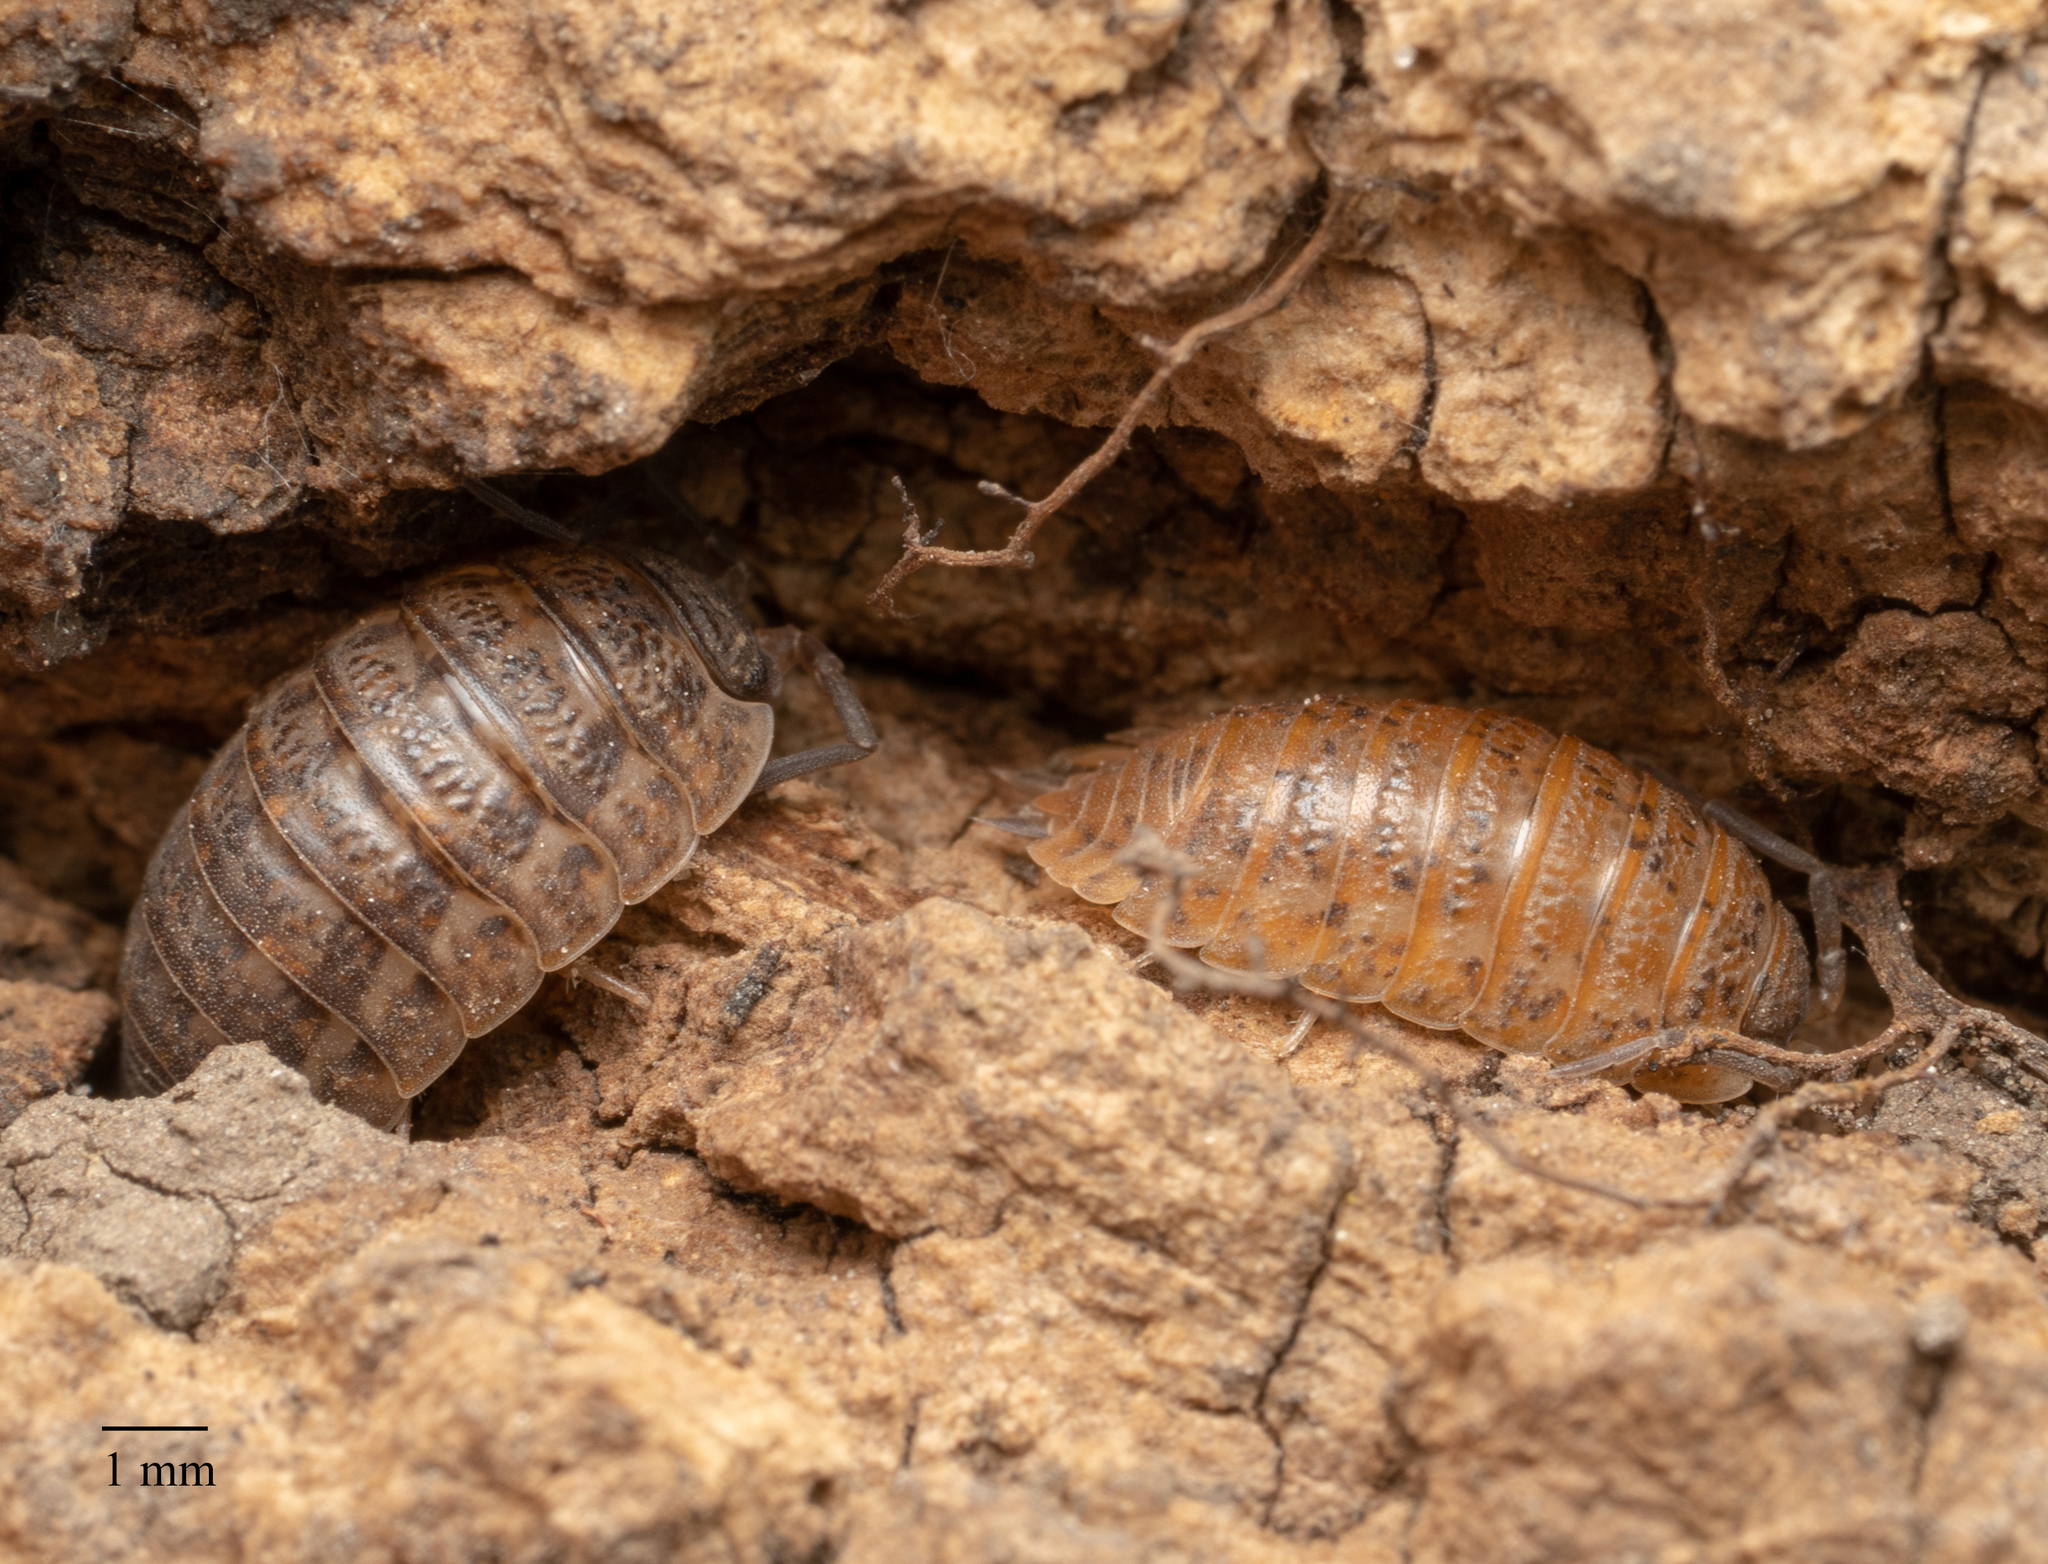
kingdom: Animalia
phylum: Arthropoda
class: Malacostraca
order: Isopoda
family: Trachelipodidae
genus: Trachelipus
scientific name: Trachelipus rathkii
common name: Isopod
